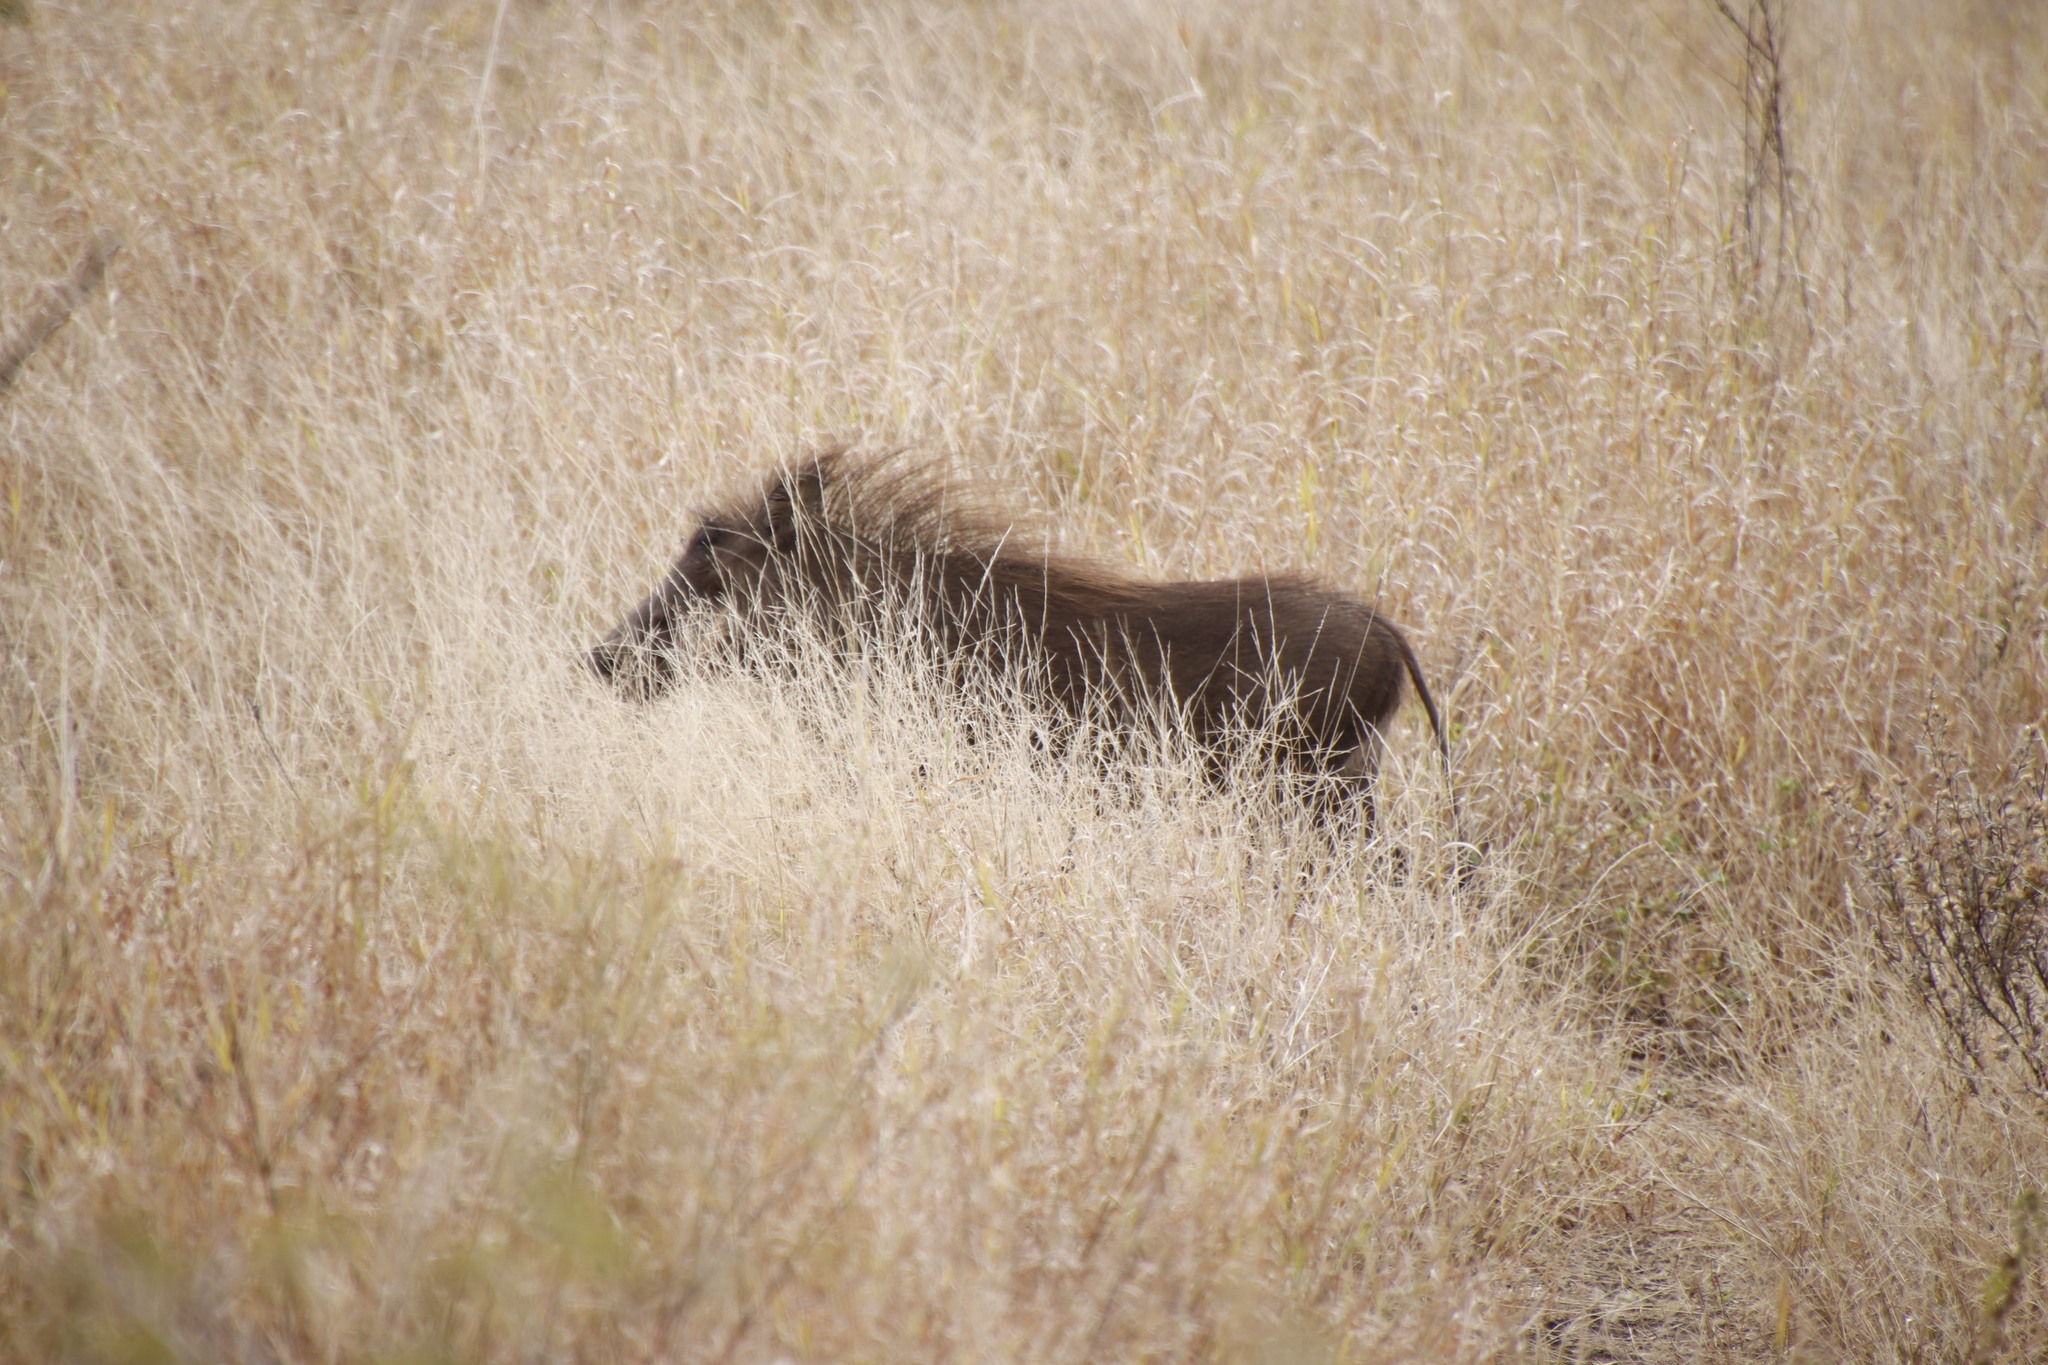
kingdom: Animalia
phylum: Chordata
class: Mammalia
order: Artiodactyla
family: Suidae
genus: Phacochoerus
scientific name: Phacochoerus africanus
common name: Common warthog
